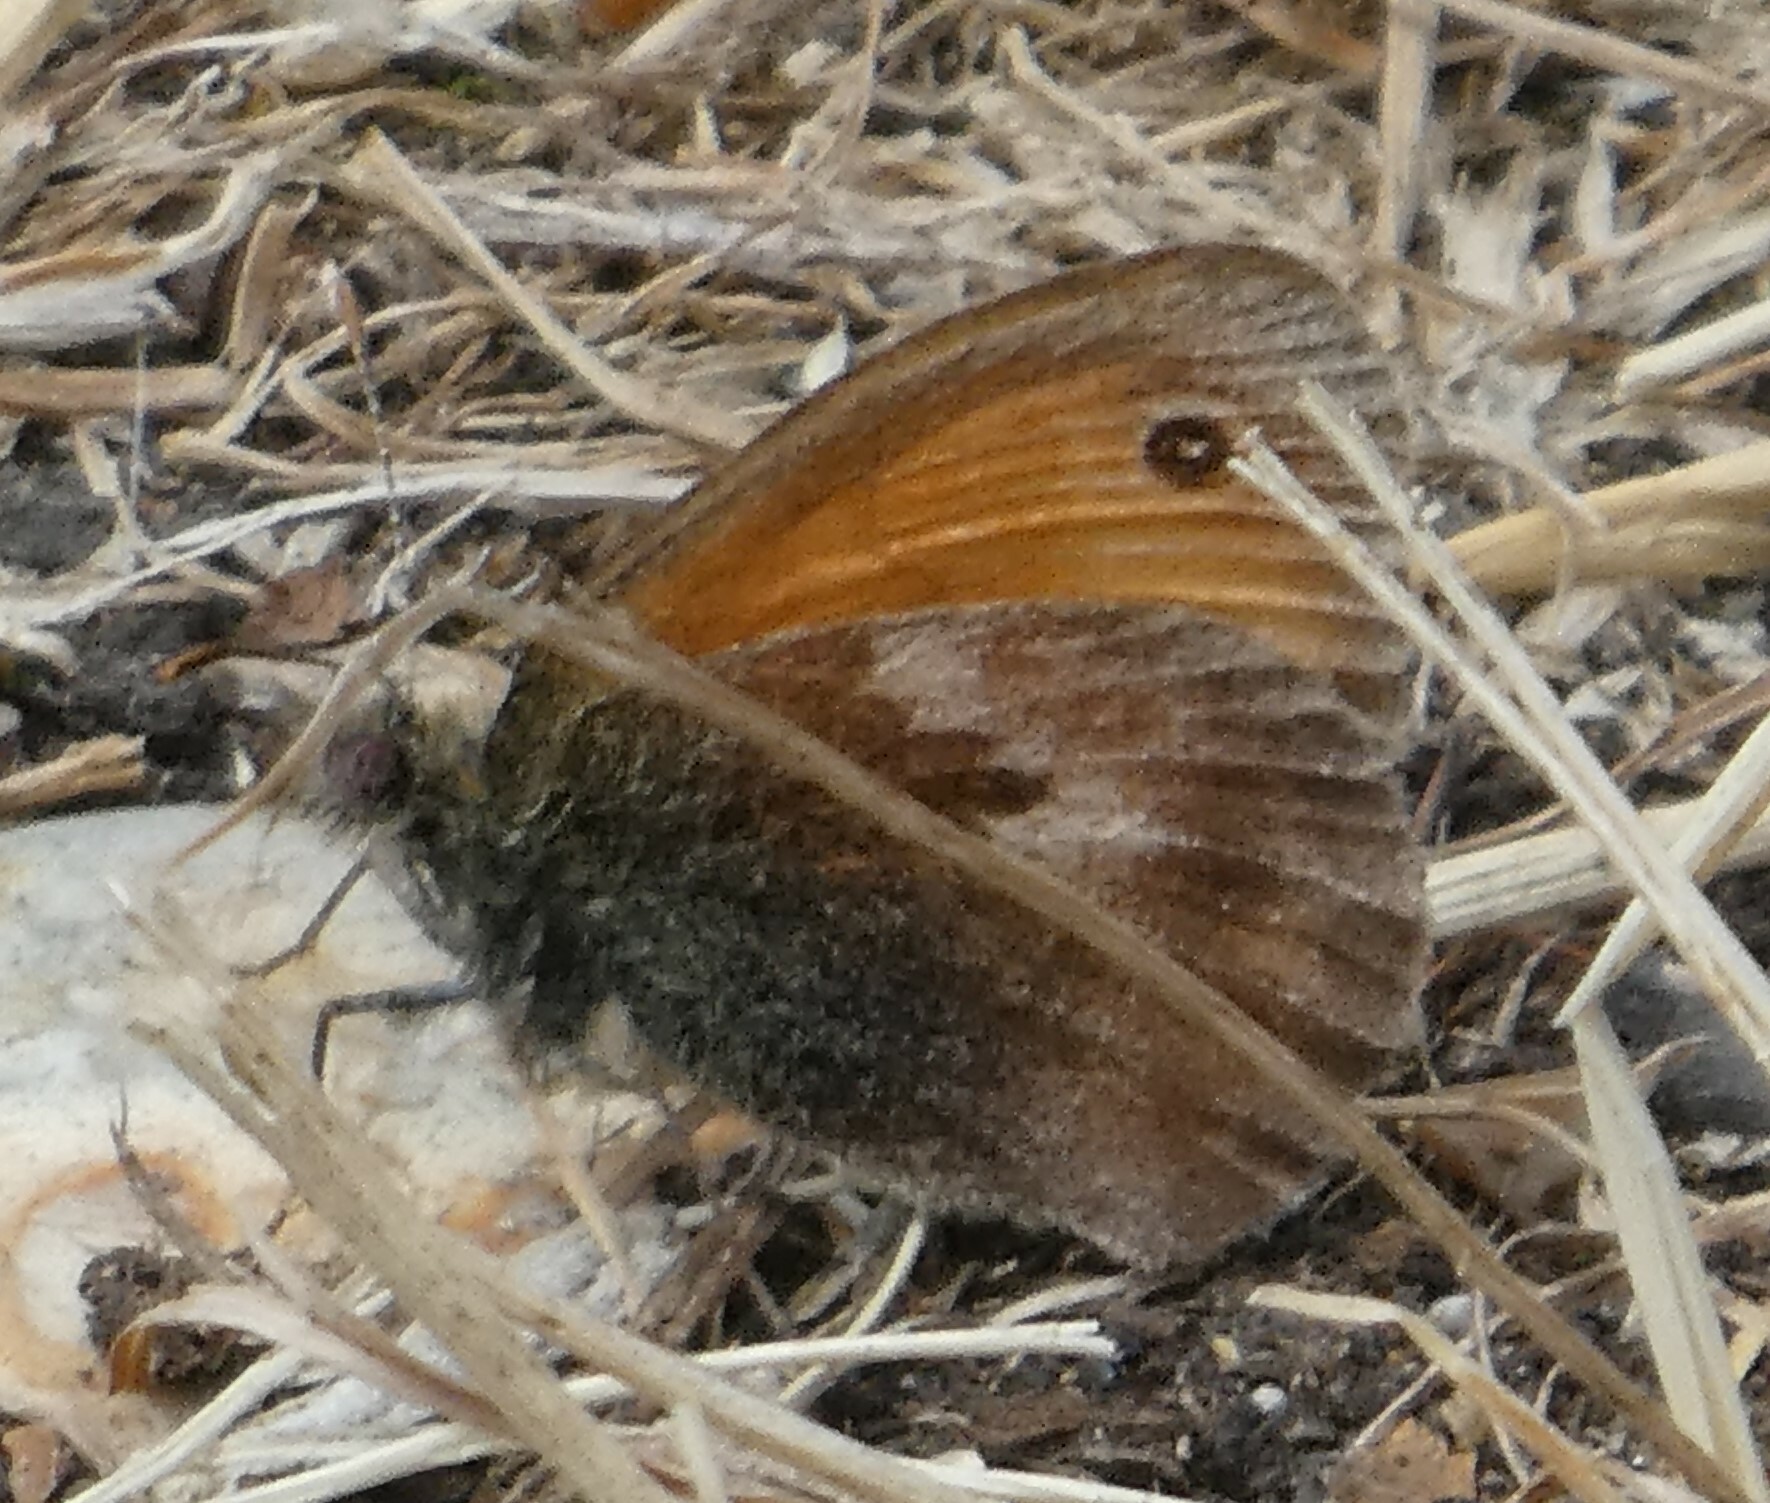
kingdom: Animalia
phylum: Arthropoda
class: Insecta
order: Lepidoptera
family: Nymphalidae
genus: Maniola
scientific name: Maniola jurtina
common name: Meadow brown
